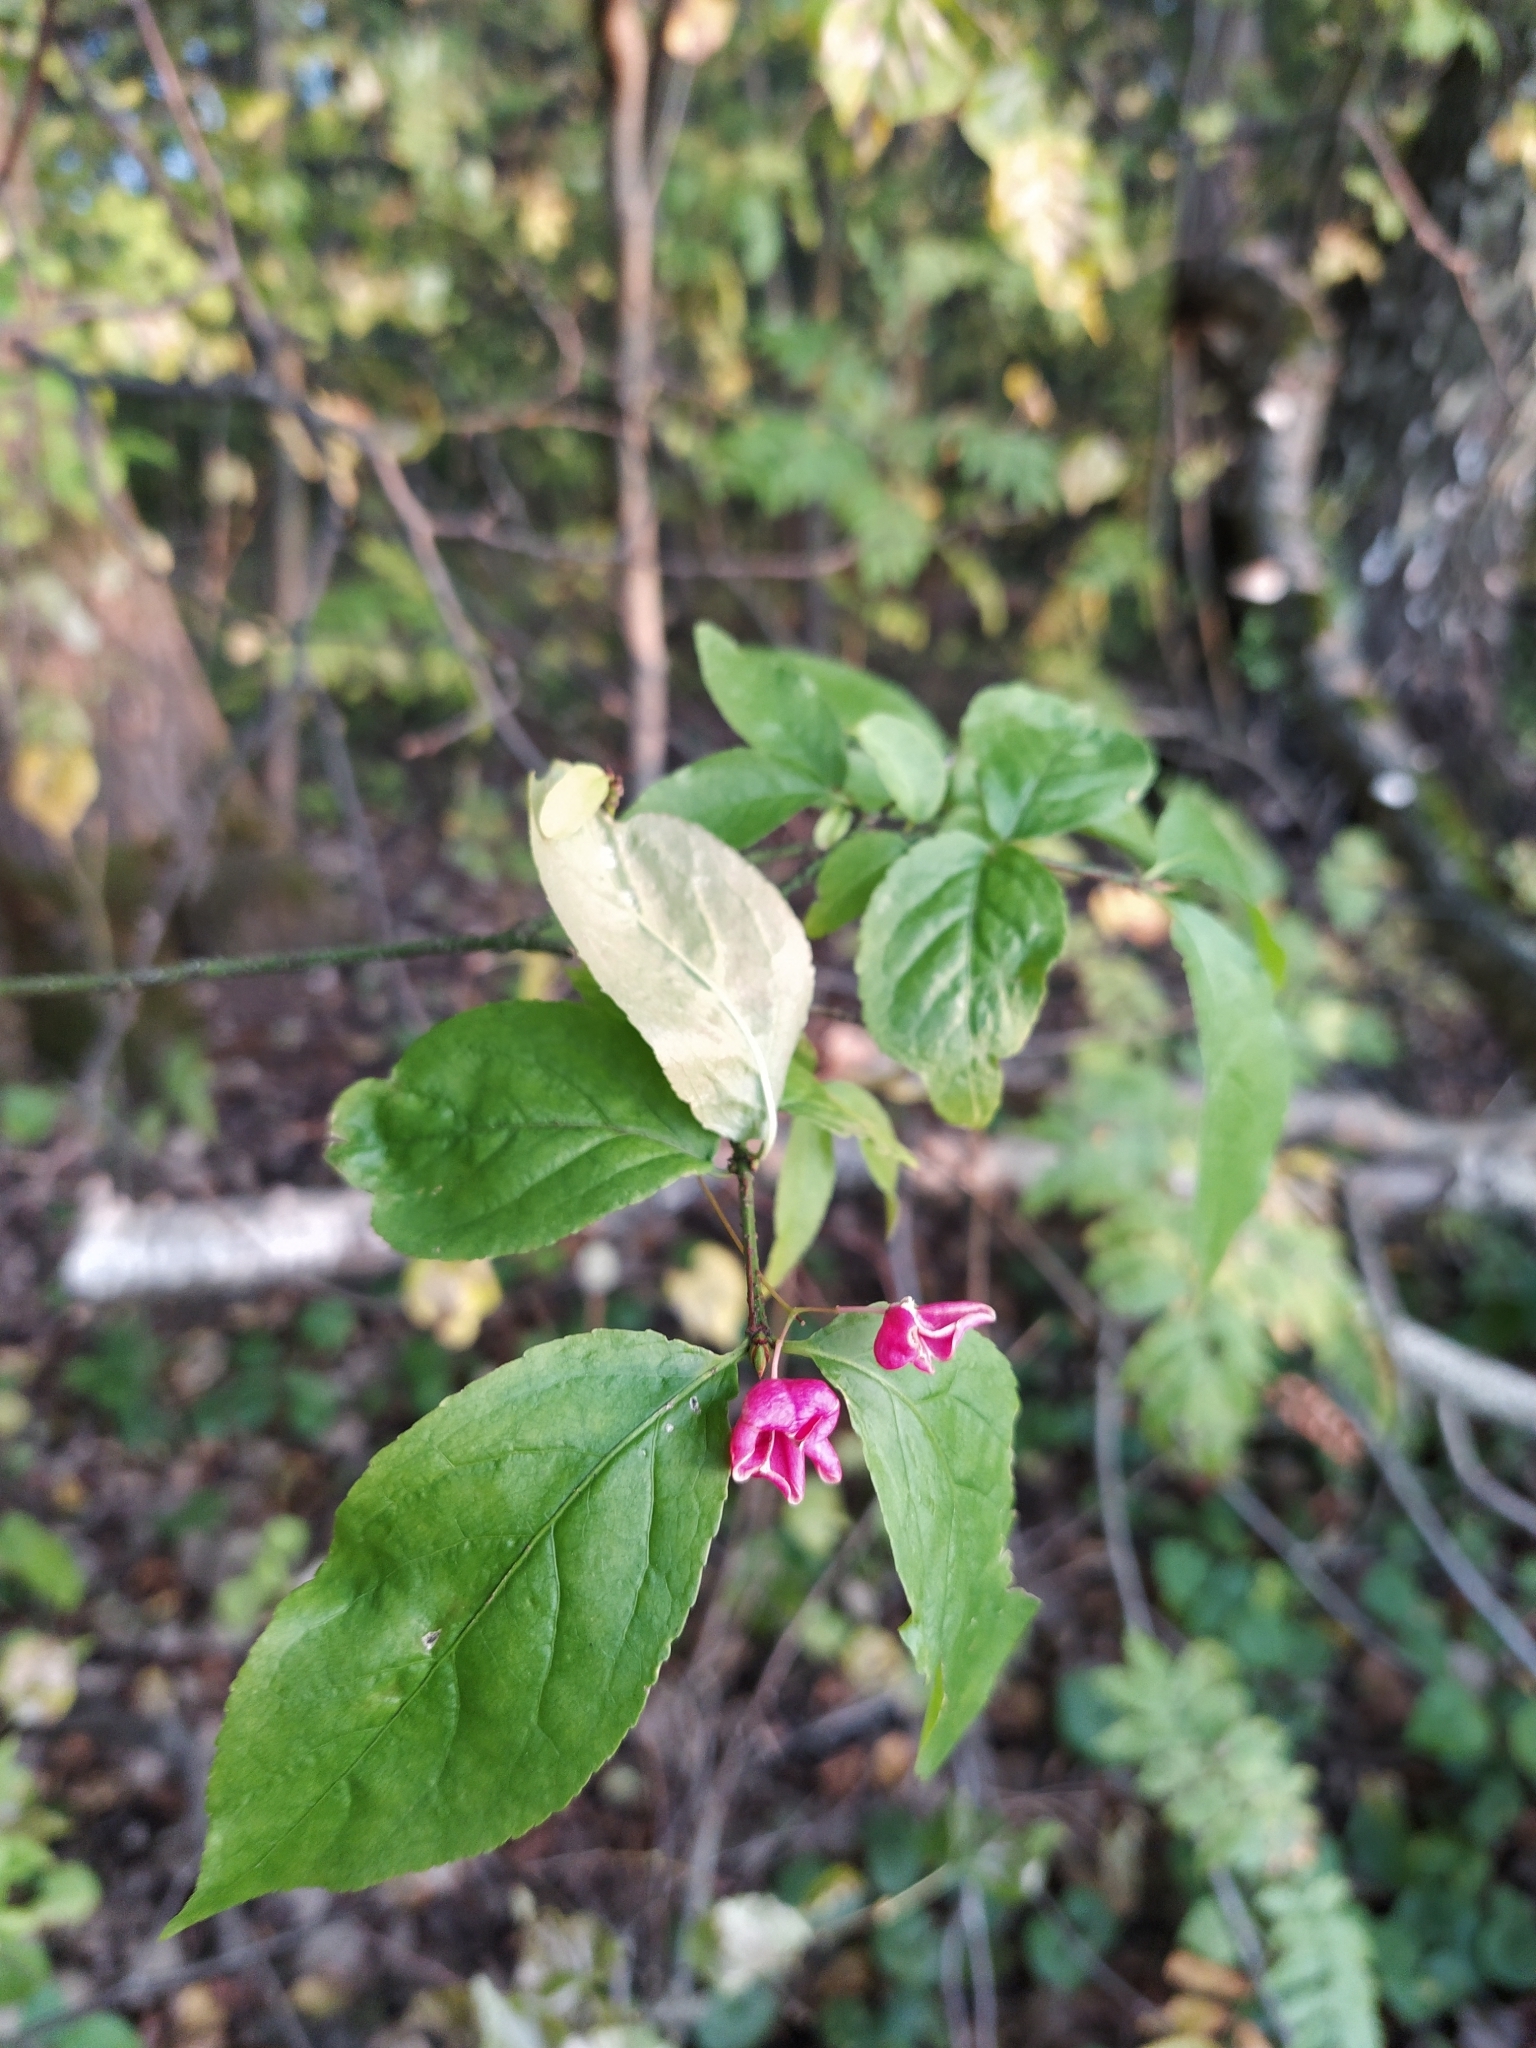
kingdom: Plantae
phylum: Tracheophyta
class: Magnoliopsida
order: Celastrales
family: Celastraceae
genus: Euonymus
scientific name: Euonymus verrucosus
